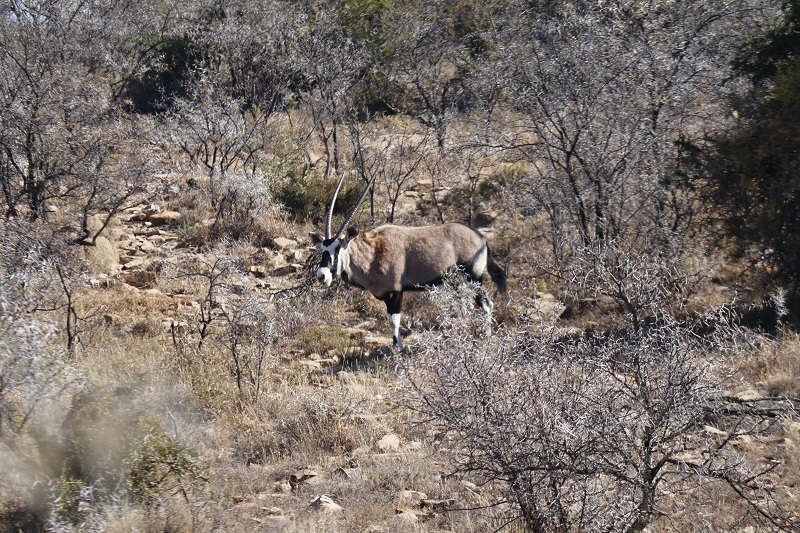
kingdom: Animalia
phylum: Chordata
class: Mammalia
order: Artiodactyla
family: Bovidae
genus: Oryx
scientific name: Oryx gazella
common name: Gemsbok
